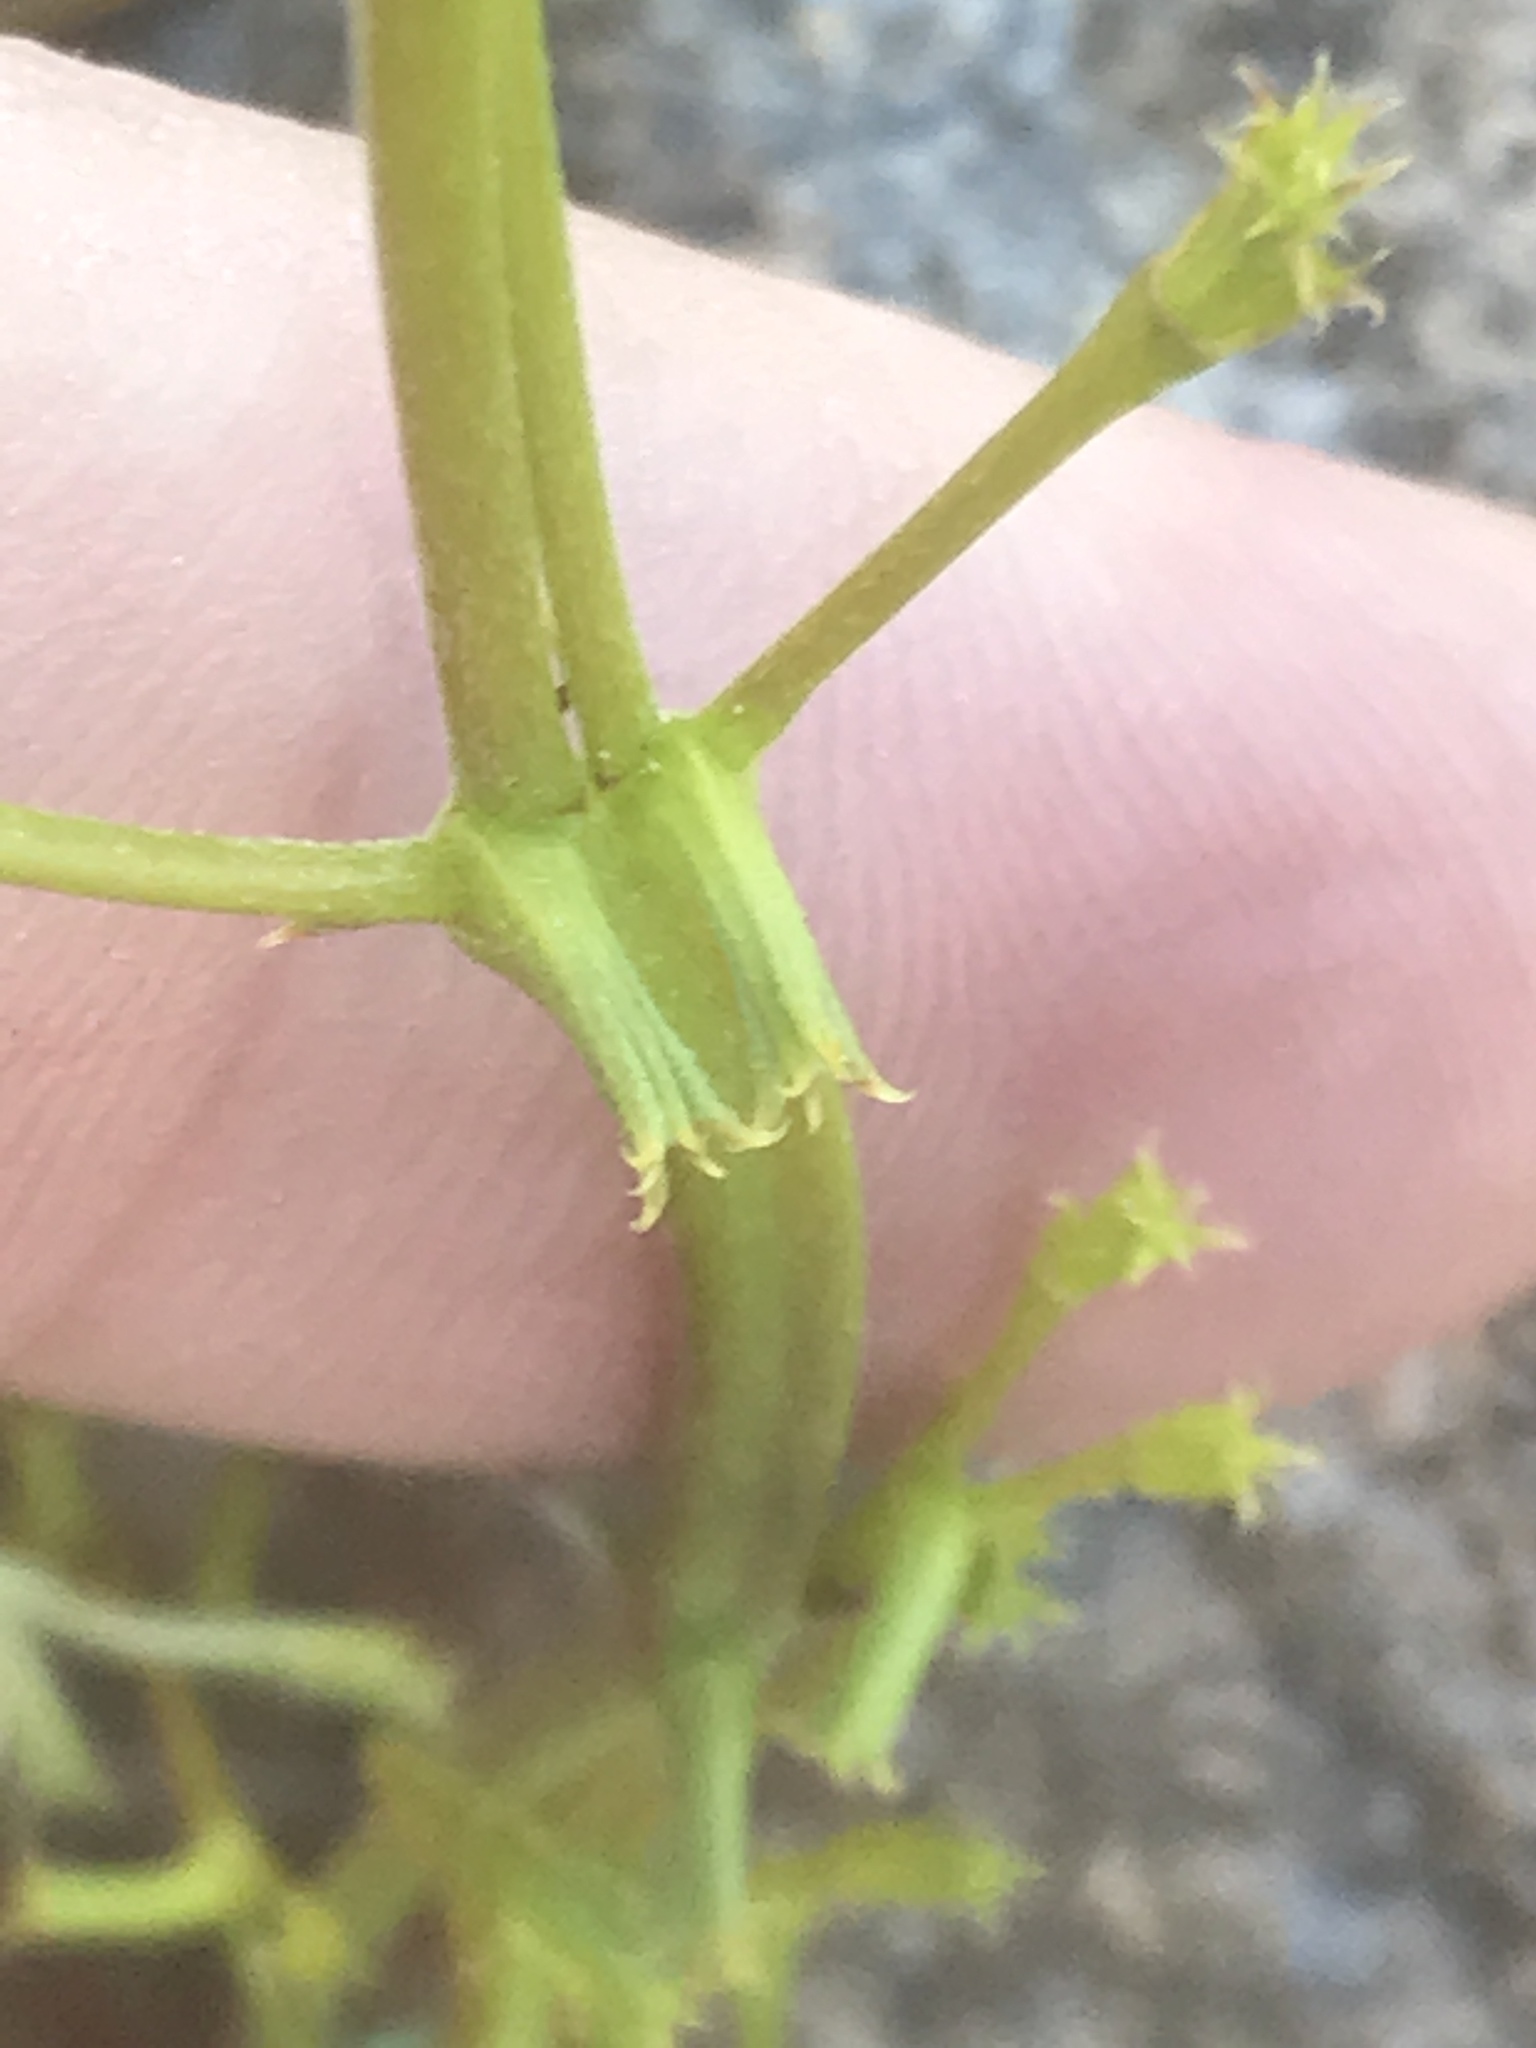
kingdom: Plantae
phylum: Tracheophyta
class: Magnoliopsida
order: Caryophyllales
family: Polygonaceae
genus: Chorizanthe
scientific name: Chorizanthe brevicornu
